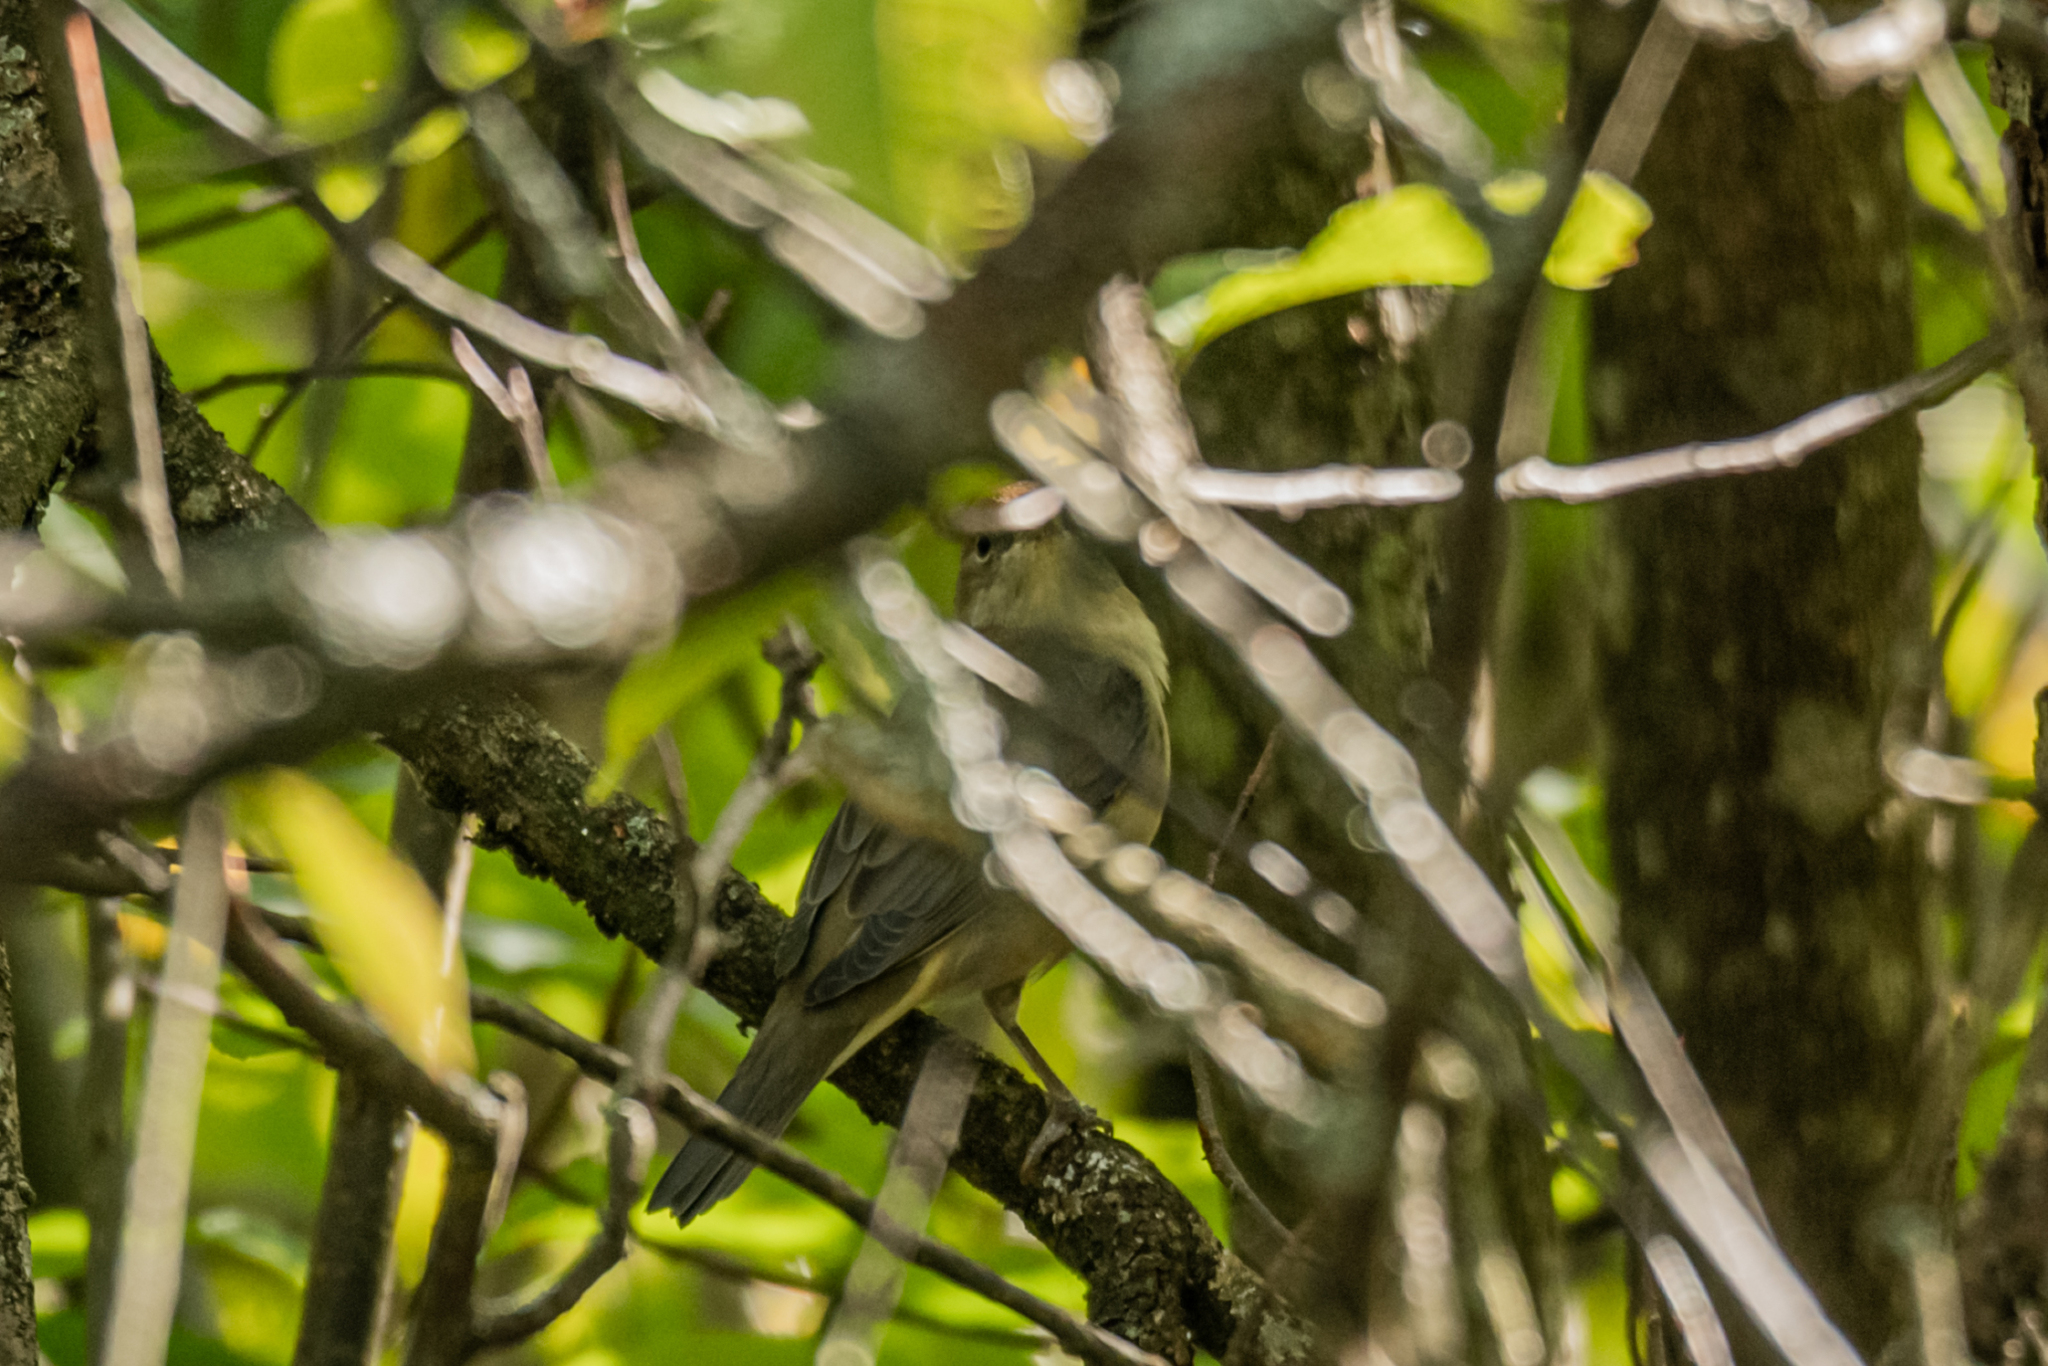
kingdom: Animalia
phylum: Chordata
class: Aves
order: Passeriformes
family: Sylviidae
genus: Sylvia
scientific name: Sylvia atricapilla
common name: Eurasian blackcap
